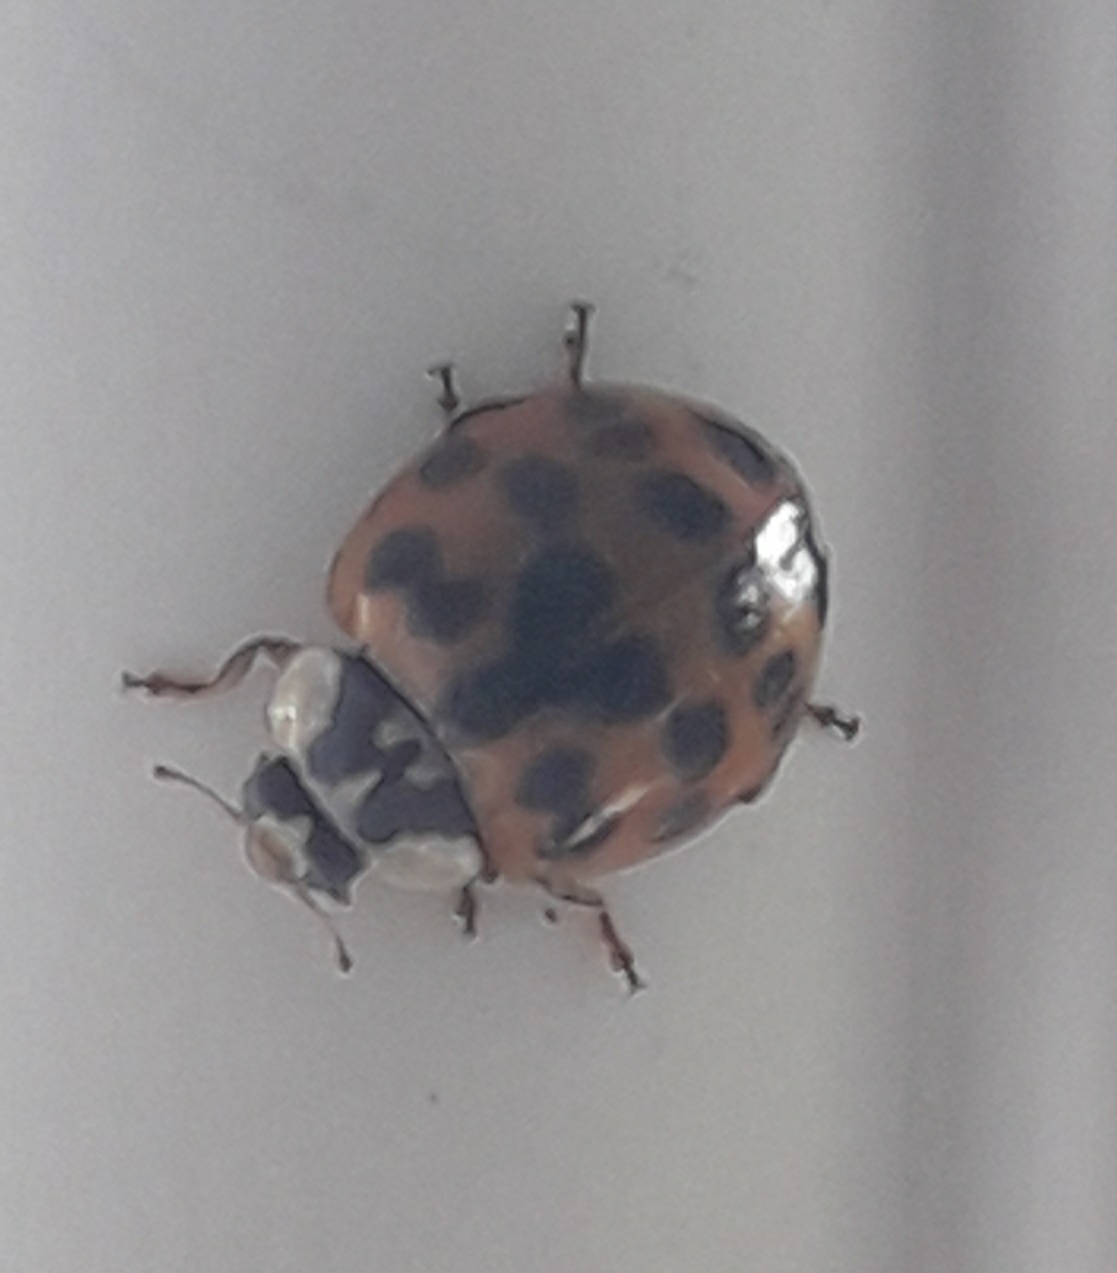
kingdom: Animalia
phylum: Arthropoda
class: Insecta
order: Coleoptera
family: Coccinellidae
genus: Harmonia
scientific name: Harmonia axyridis
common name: Harlequin ladybird
